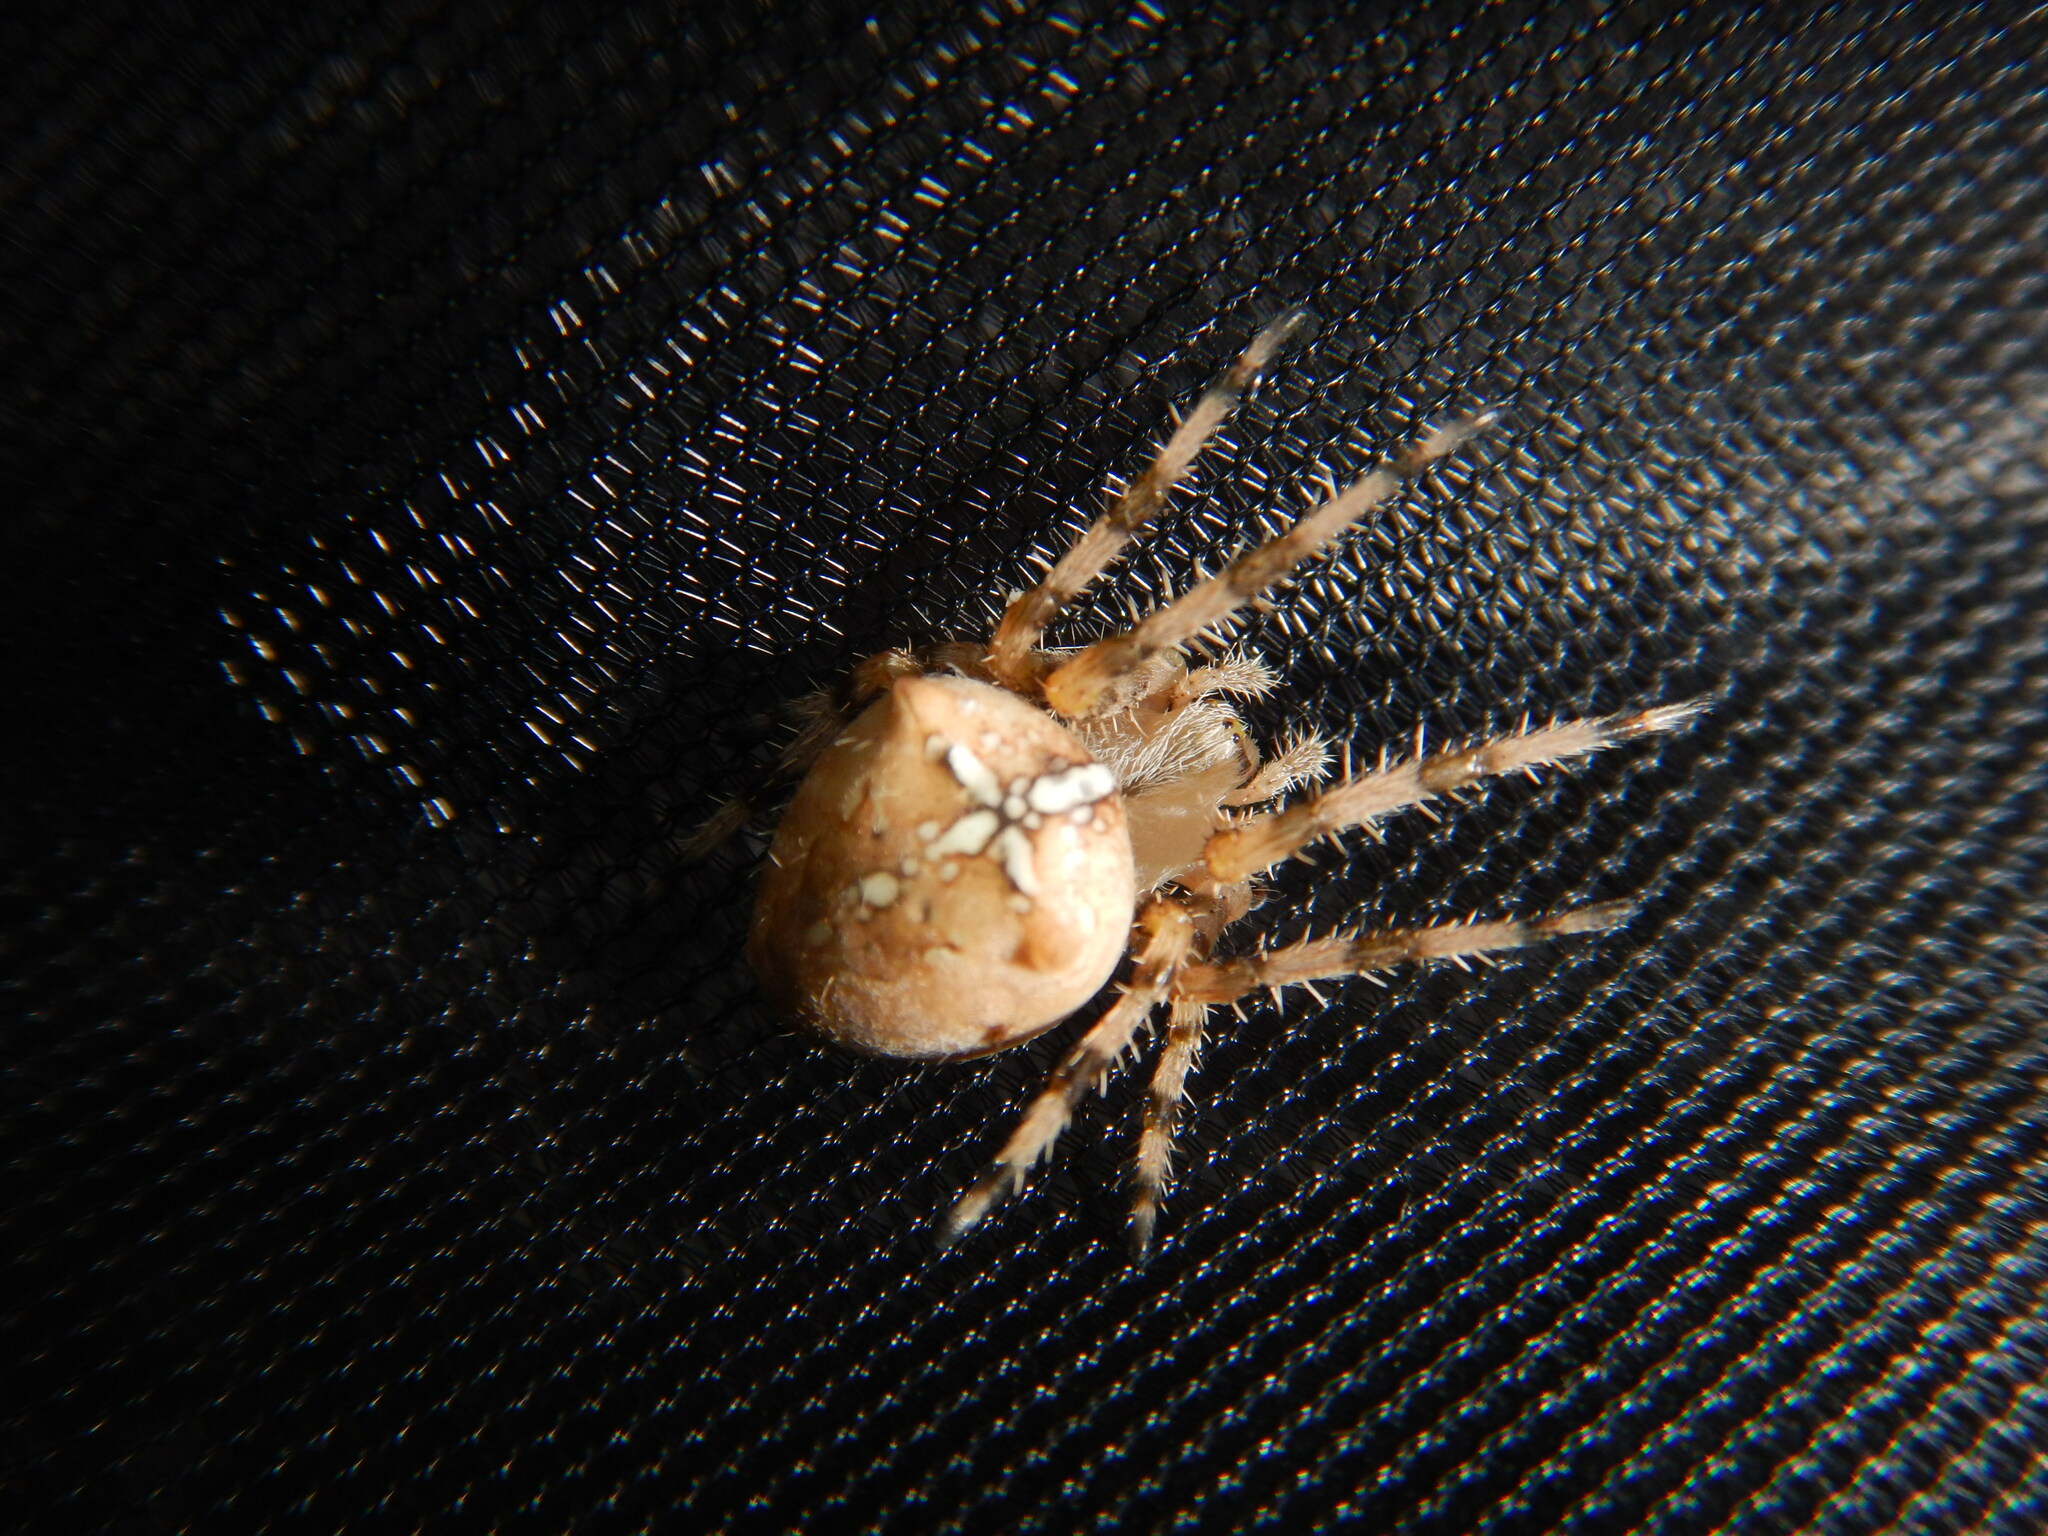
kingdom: Animalia
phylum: Arthropoda
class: Arachnida
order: Araneae
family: Araneidae
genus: Araneus
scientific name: Araneus pallidus
